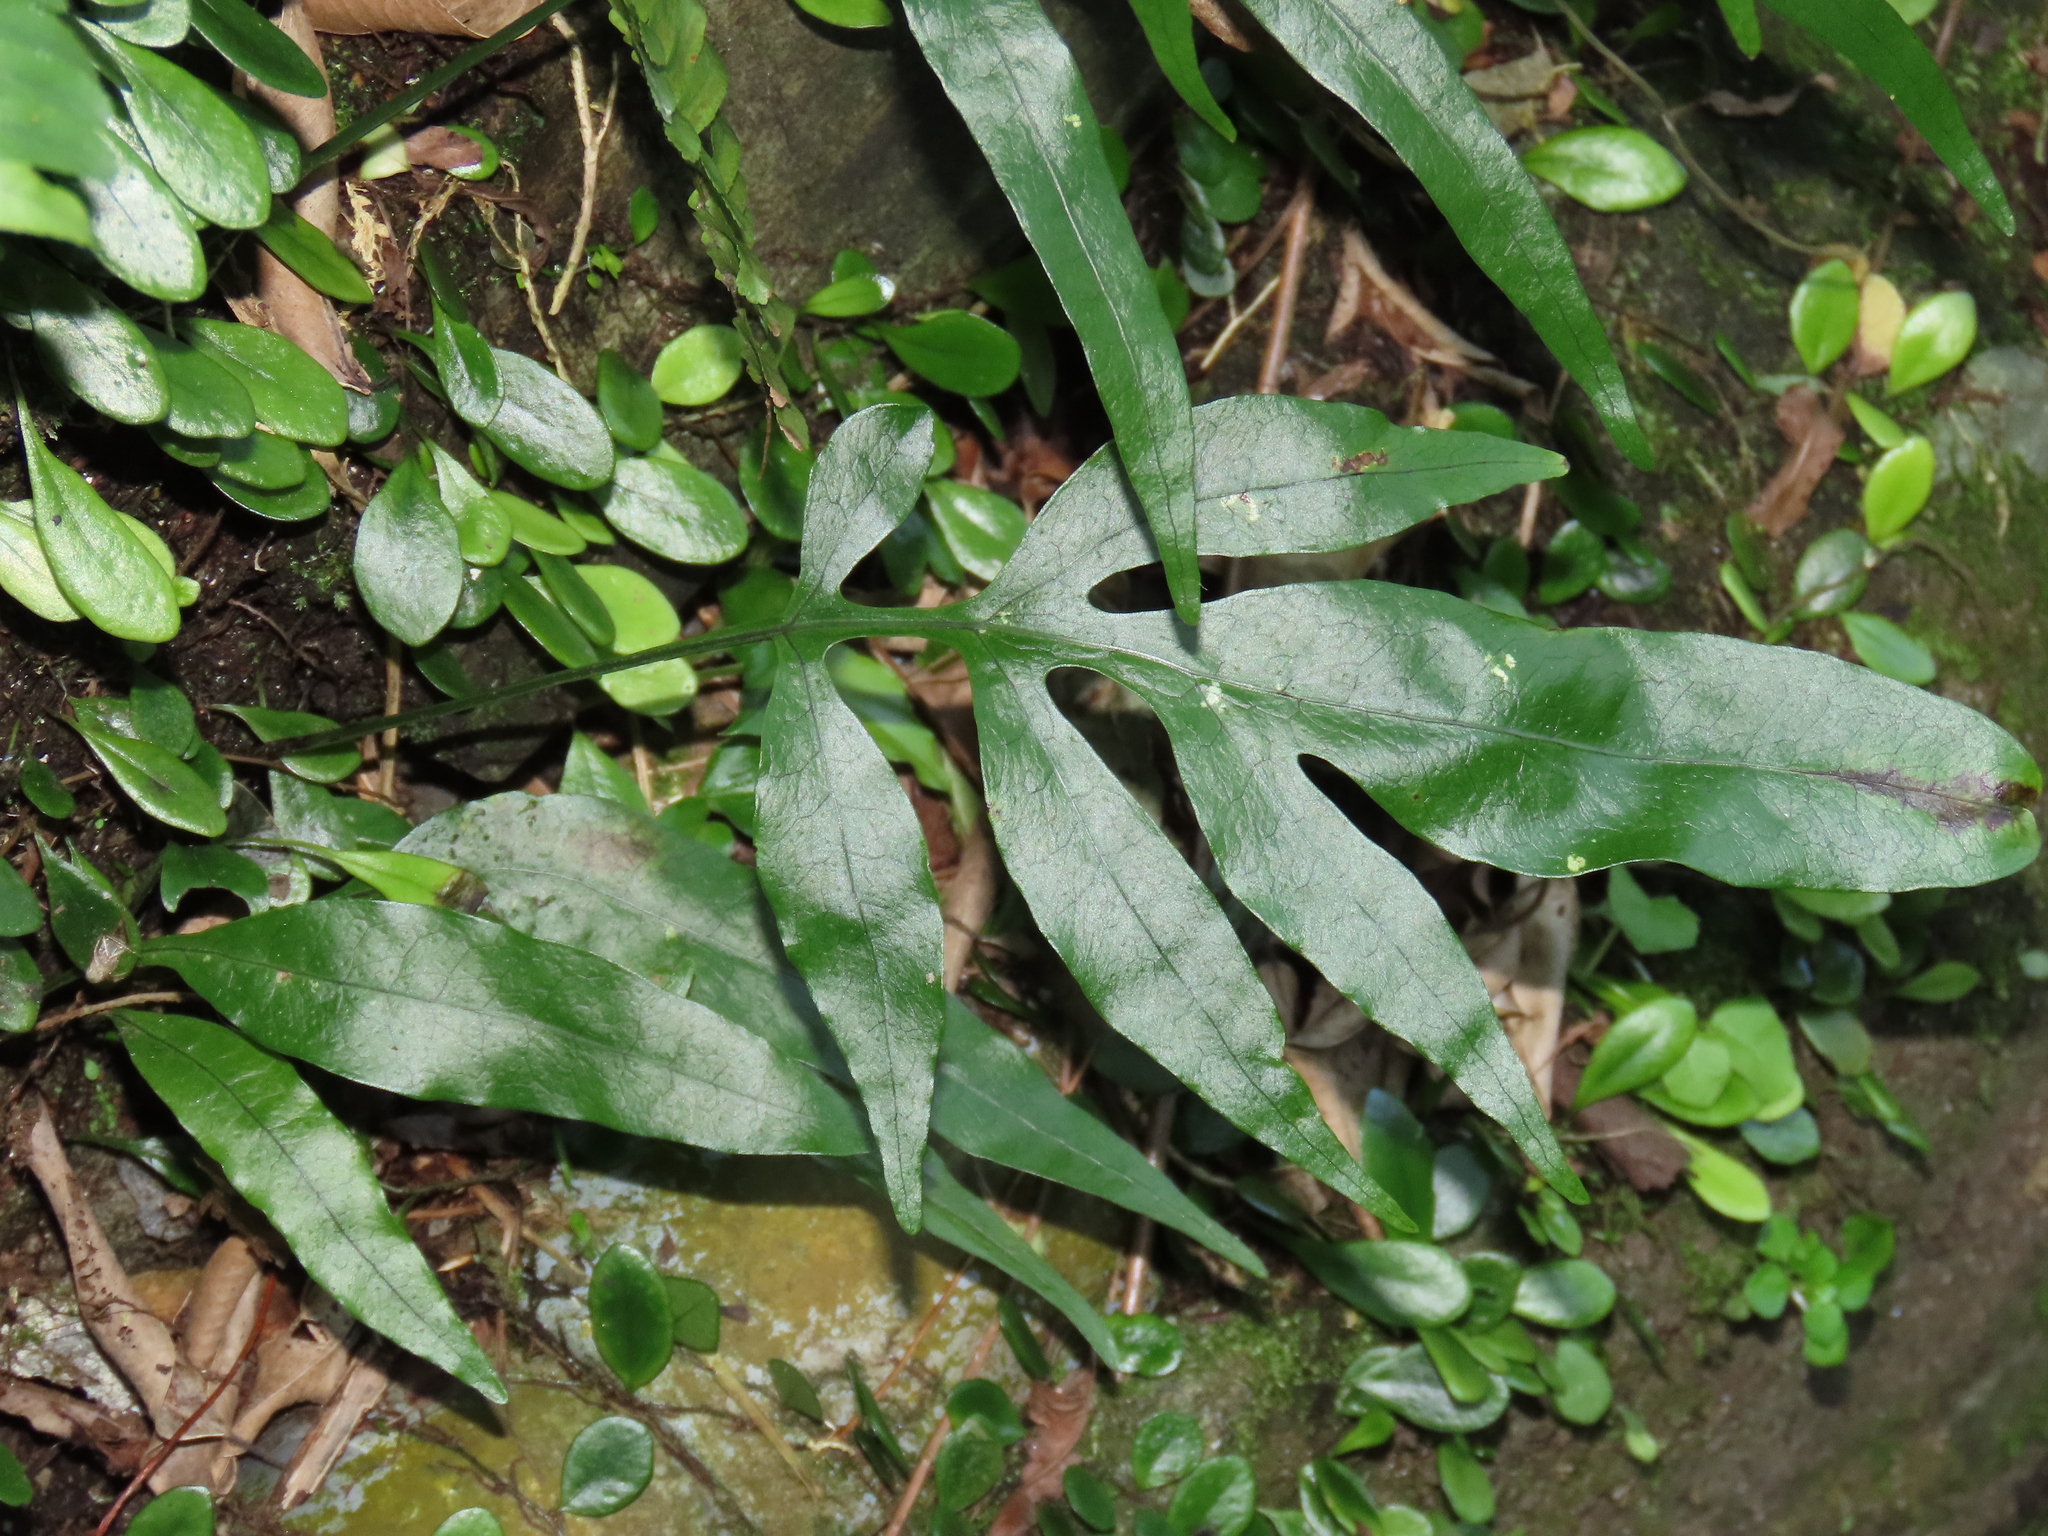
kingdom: Plantae
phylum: Tracheophyta
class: Polypodiopsida
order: Polypodiales
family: Polypodiaceae
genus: Leptochilus
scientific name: Leptochilus ellipticus
